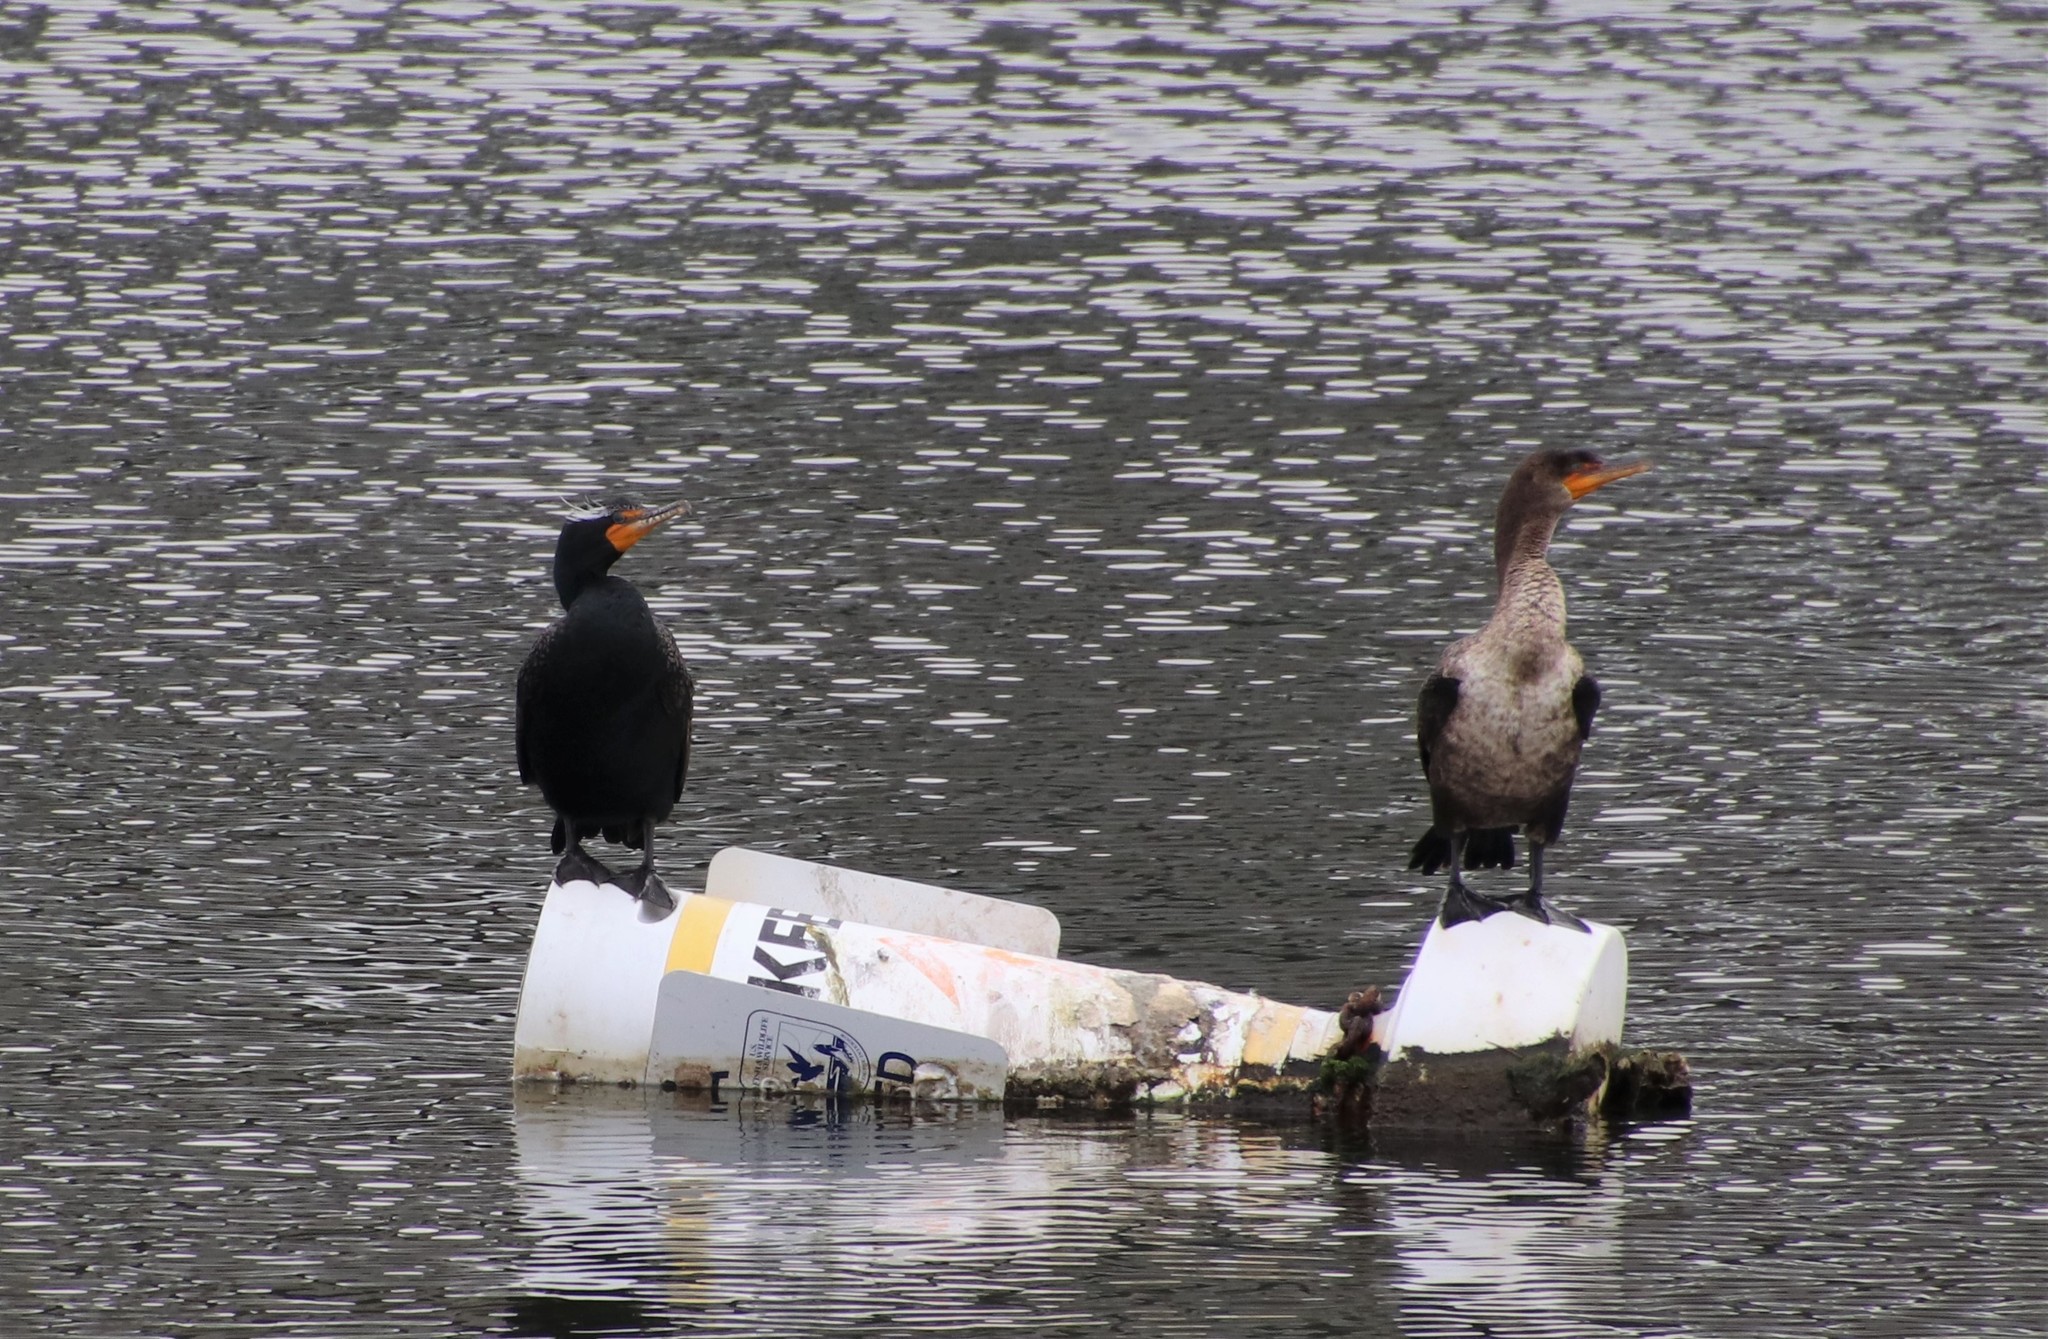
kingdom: Animalia
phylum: Chordata
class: Aves
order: Suliformes
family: Phalacrocoracidae
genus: Phalacrocorax
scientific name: Phalacrocorax auritus
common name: Double-crested cormorant
